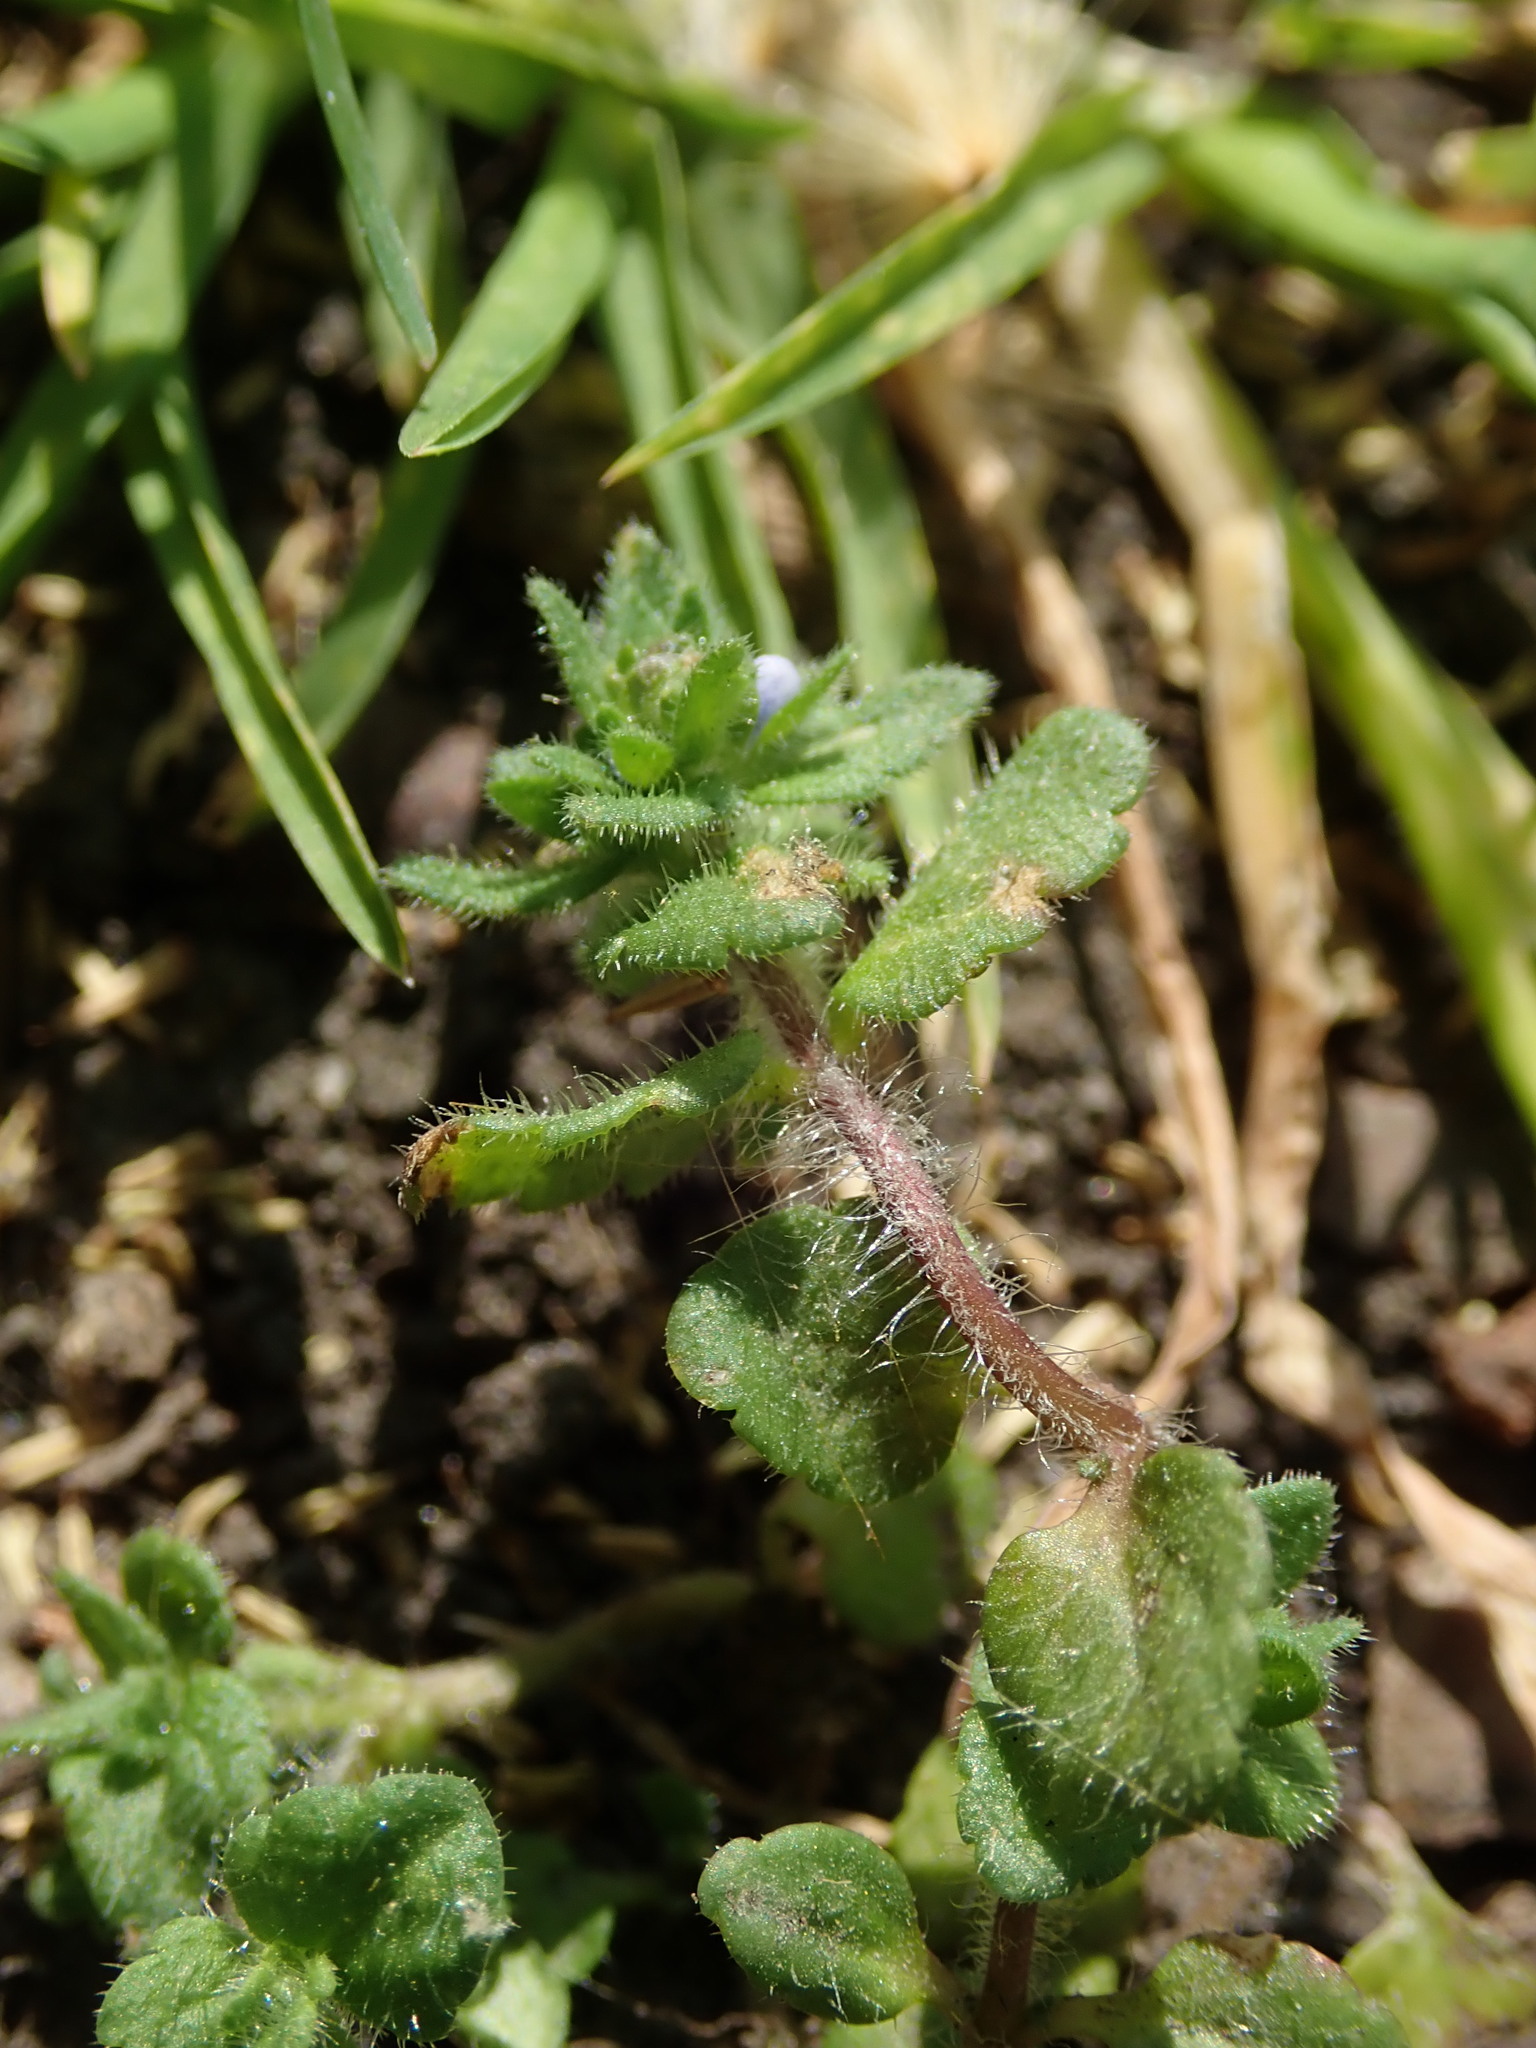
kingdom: Plantae
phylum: Tracheophyta
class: Magnoliopsida
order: Lamiales
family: Plantaginaceae
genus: Veronica
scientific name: Veronica arvensis
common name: Corn speedwell
